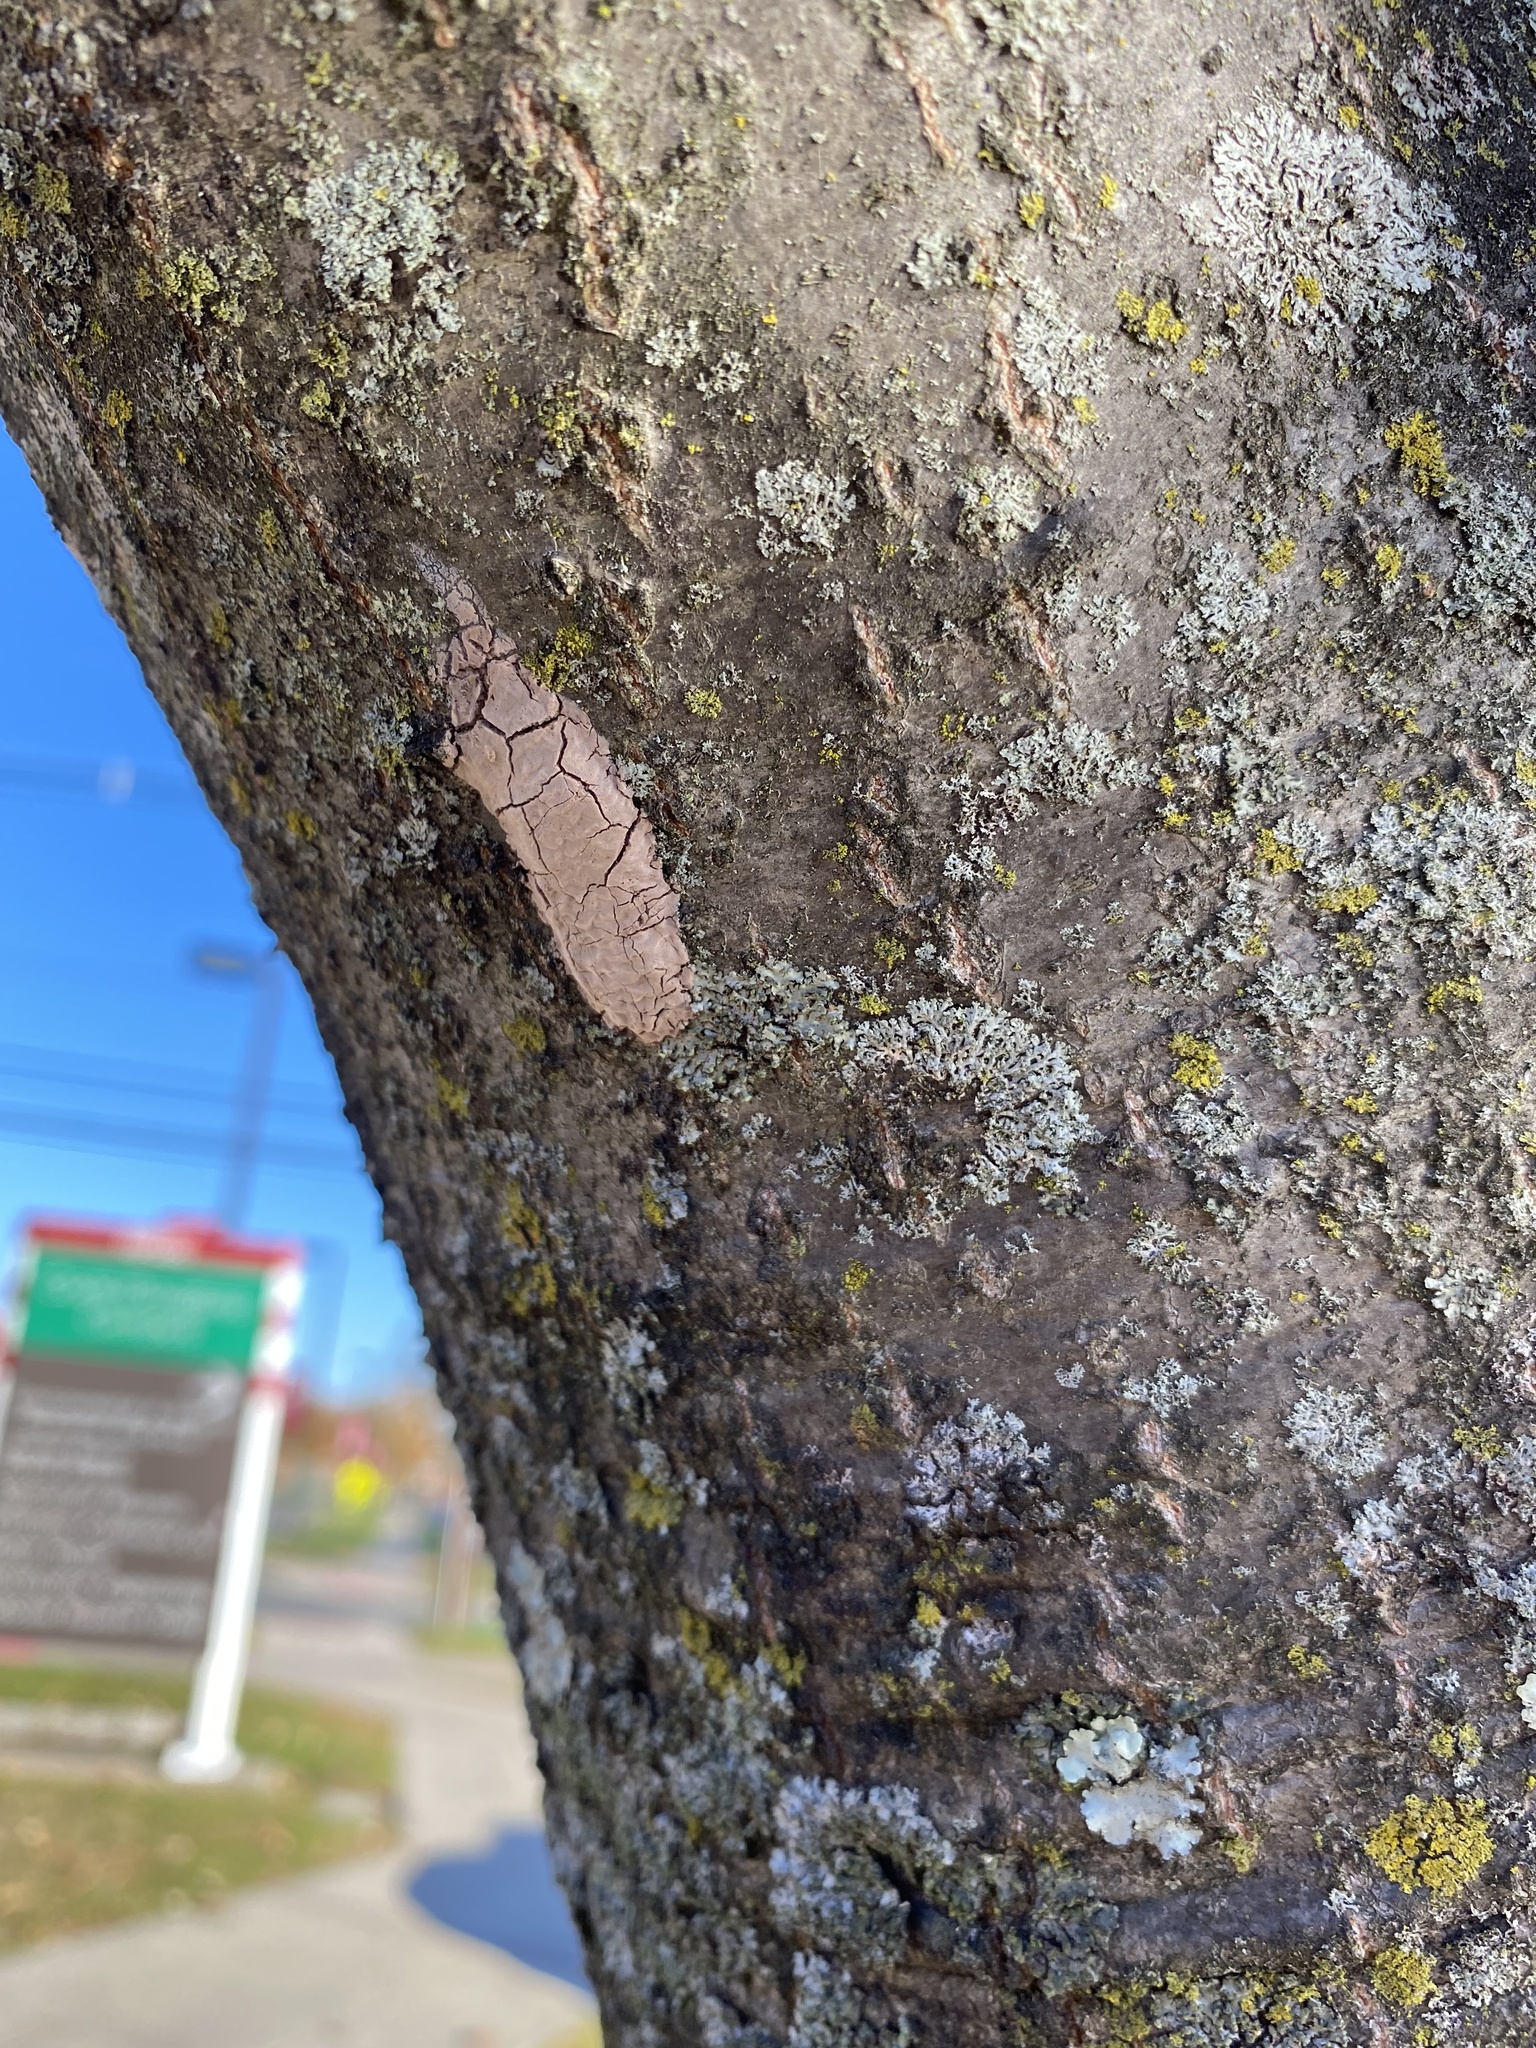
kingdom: Animalia
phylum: Arthropoda
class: Insecta
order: Hemiptera
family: Fulgoridae
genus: Lycorma
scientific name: Lycorma delicatula
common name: Spotted lanternfly
